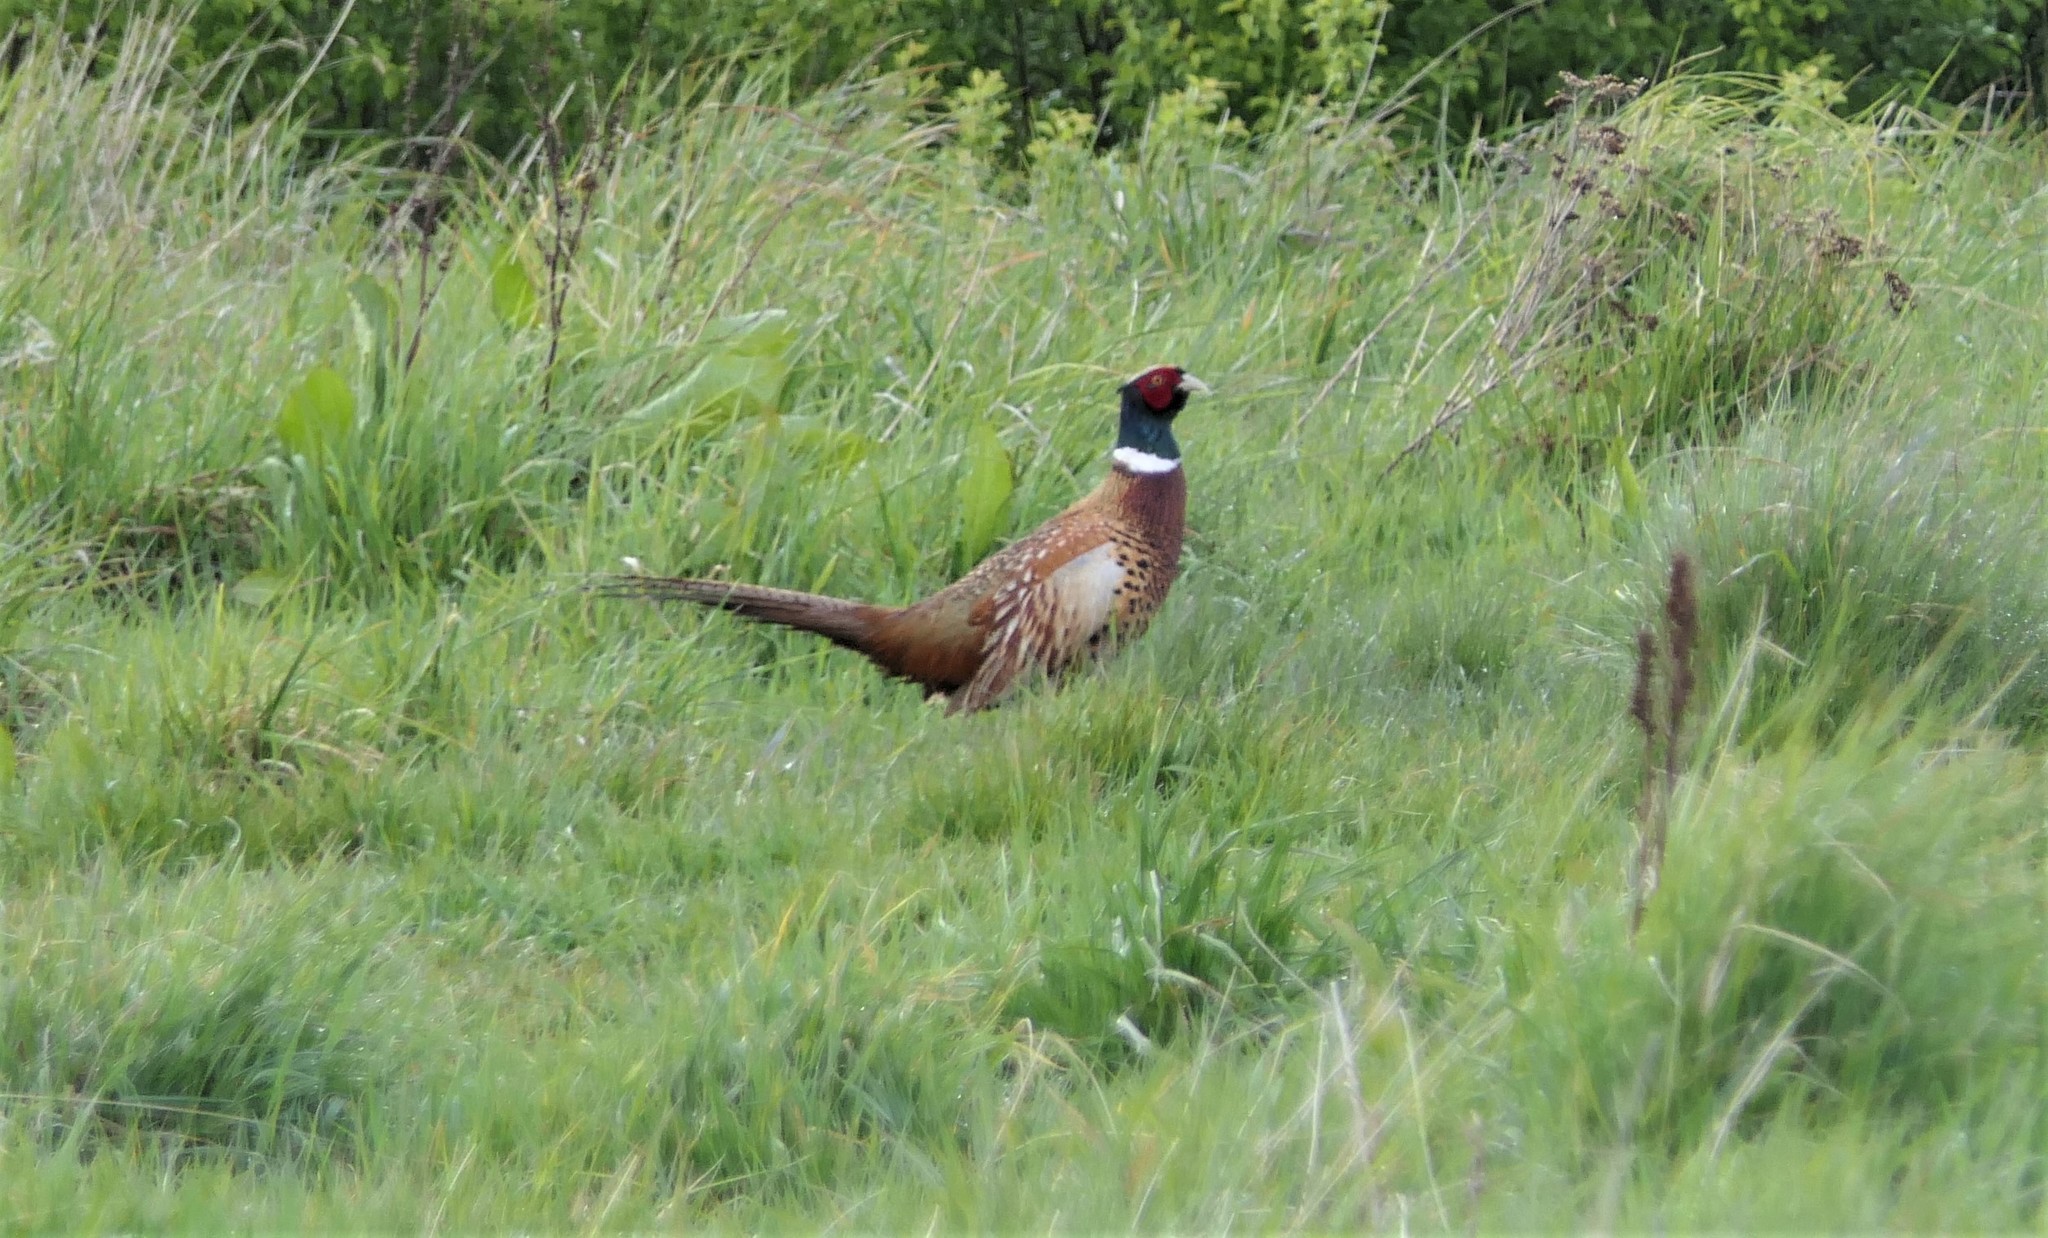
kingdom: Animalia
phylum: Chordata
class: Aves
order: Galliformes
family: Phasianidae
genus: Phasianus
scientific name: Phasianus colchicus
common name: Common pheasant
